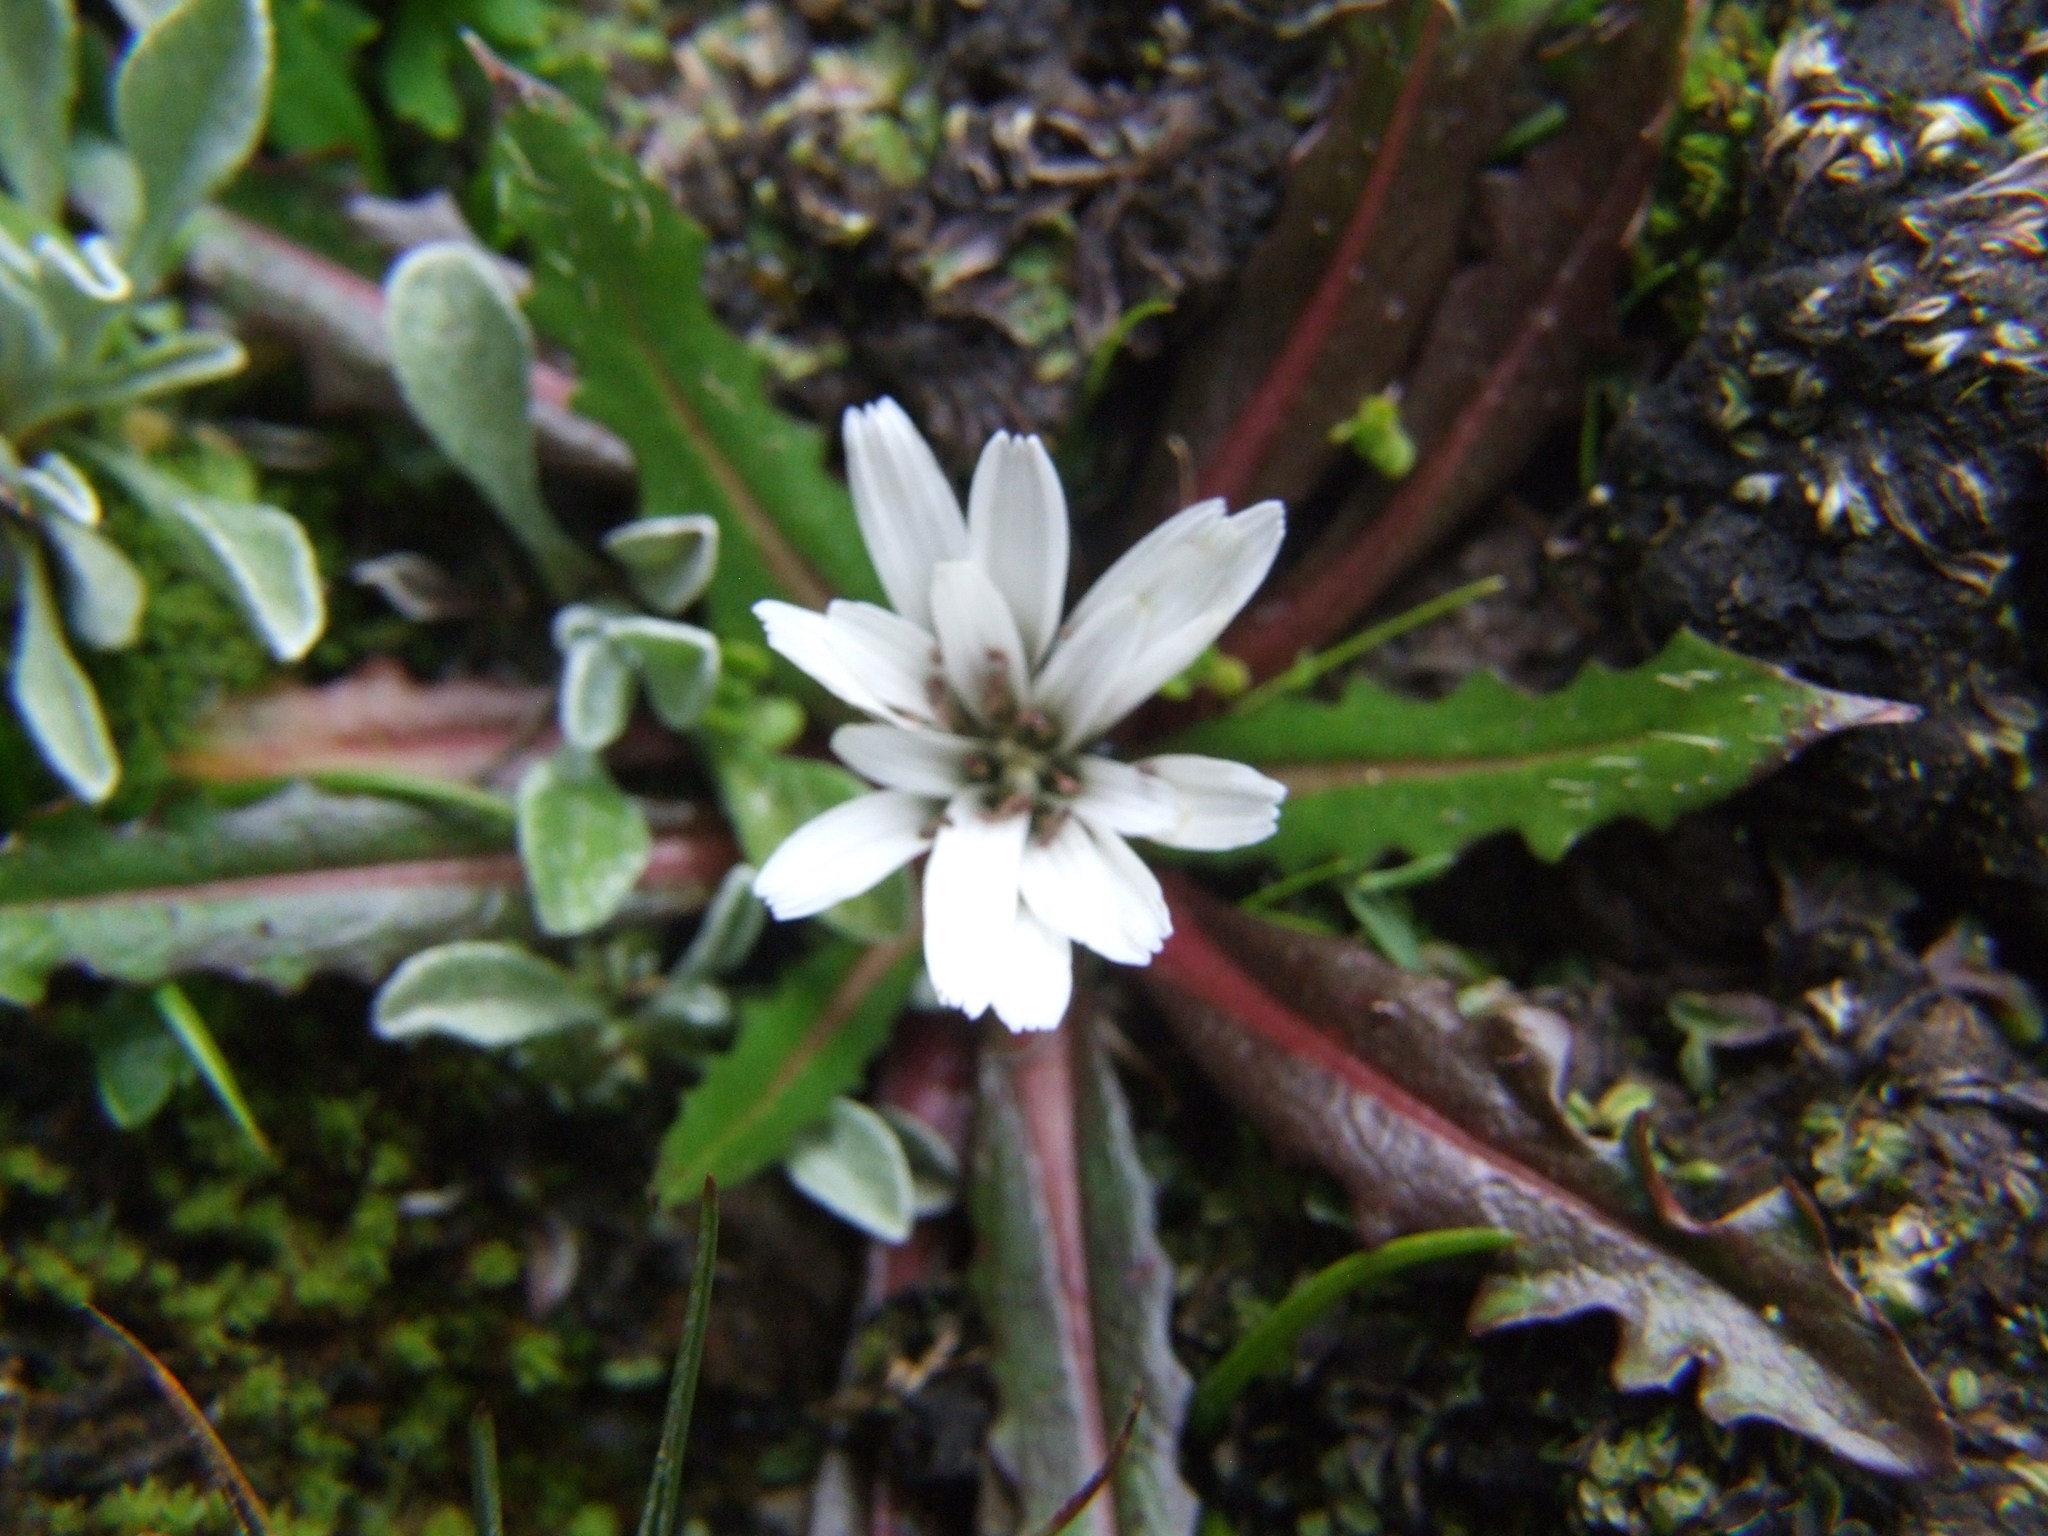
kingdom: Plantae
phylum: Tracheophyta
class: Magnoliopsida
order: Asterales
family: Asteraceae
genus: Hypochaeris
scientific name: Hypochaeris taraxacoides
